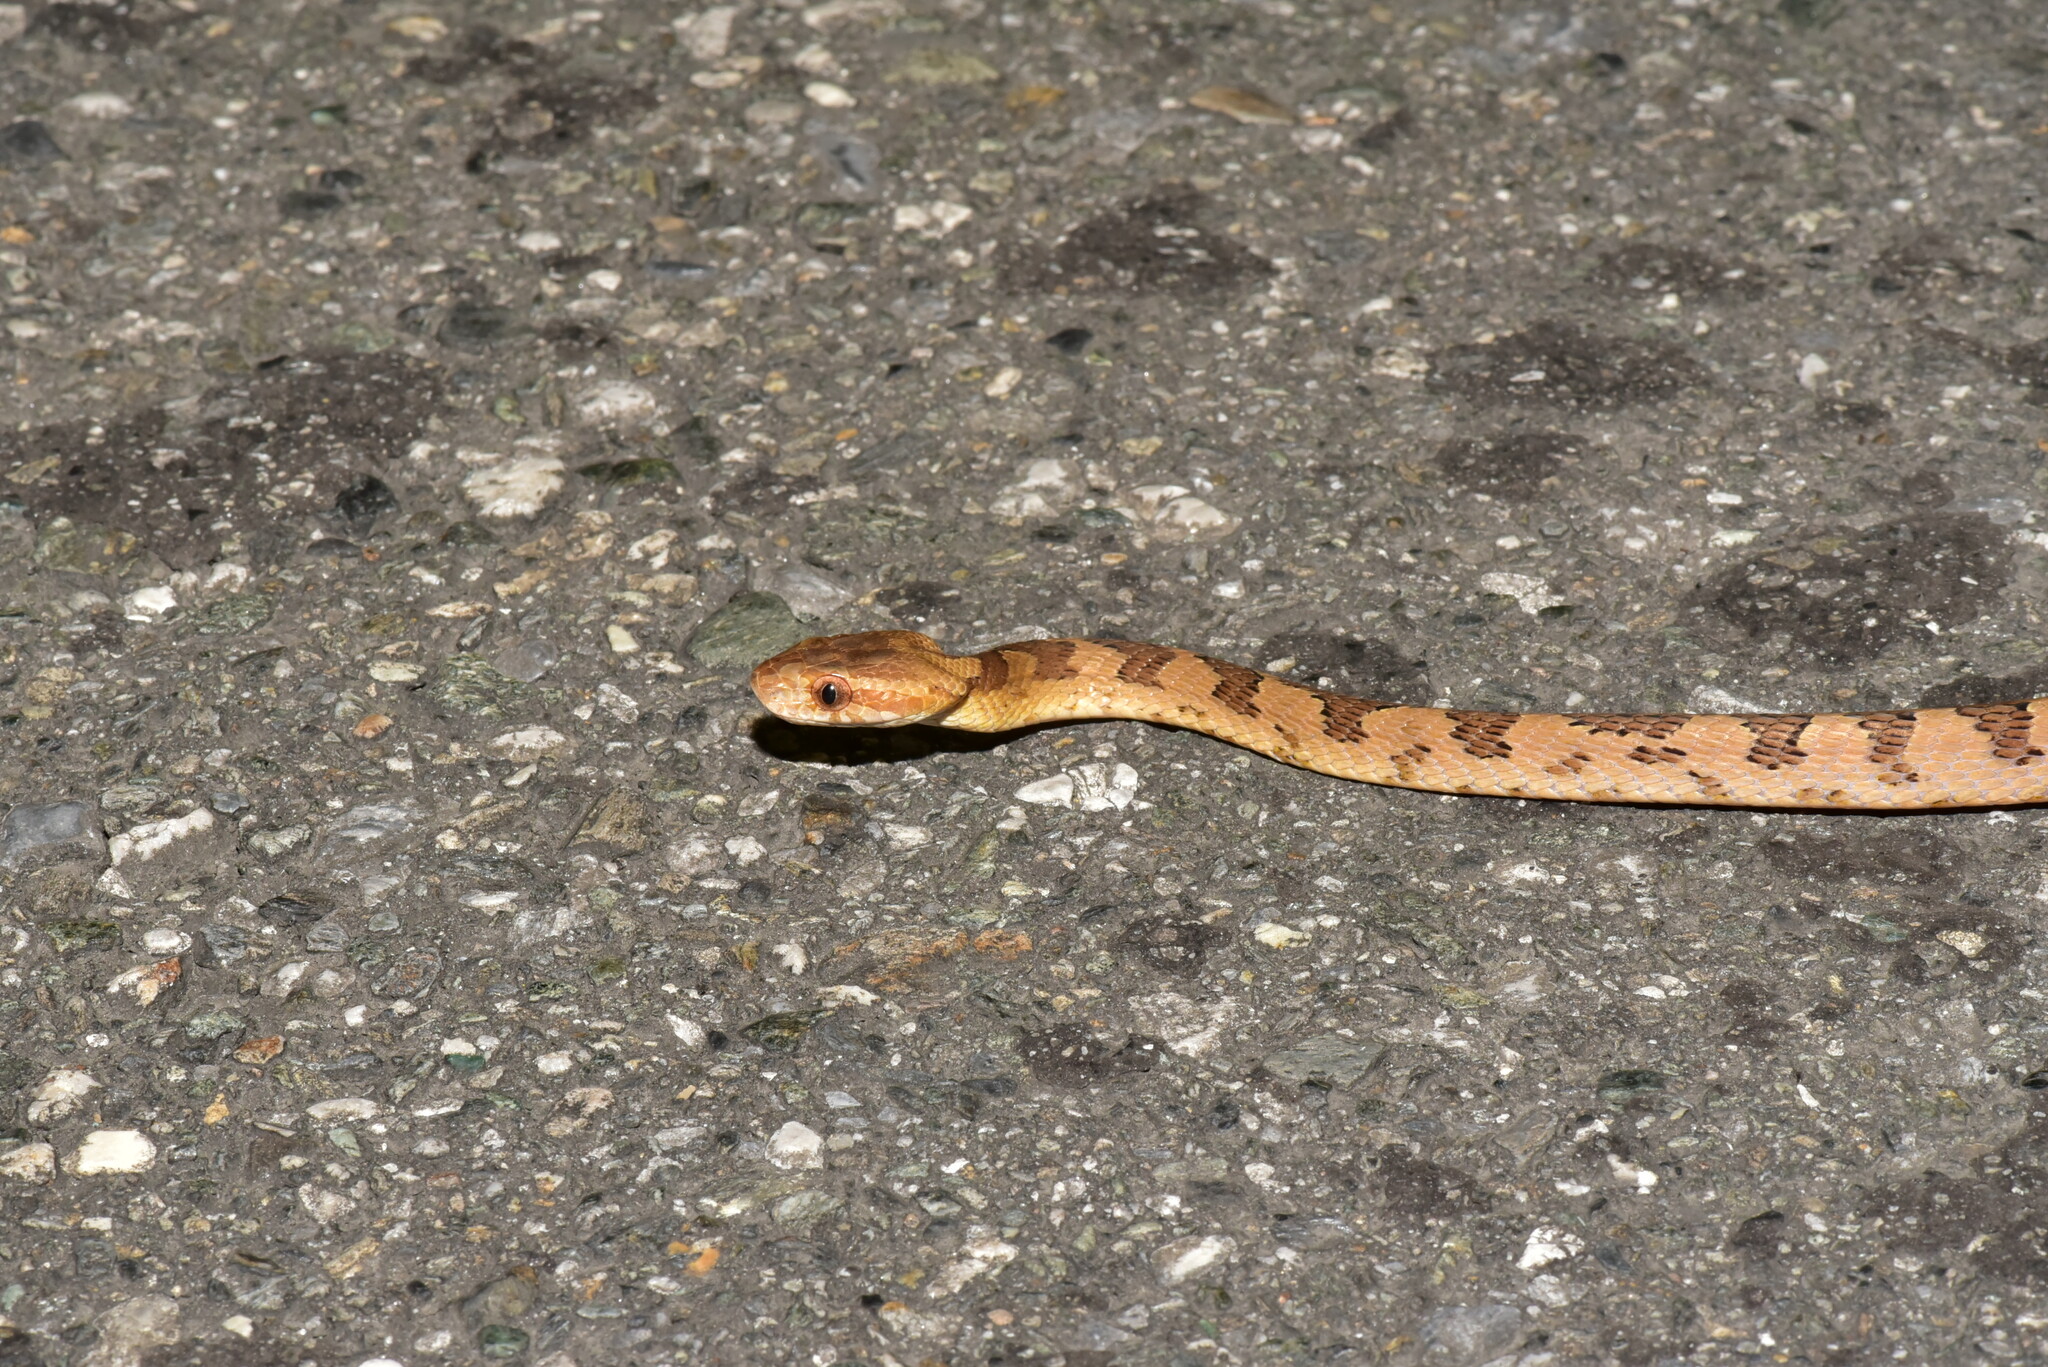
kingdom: Animalia
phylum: Chordata
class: Squamata
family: Colubridae
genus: Boiga
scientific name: Boiga kraepelini
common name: Kelung cat snake
